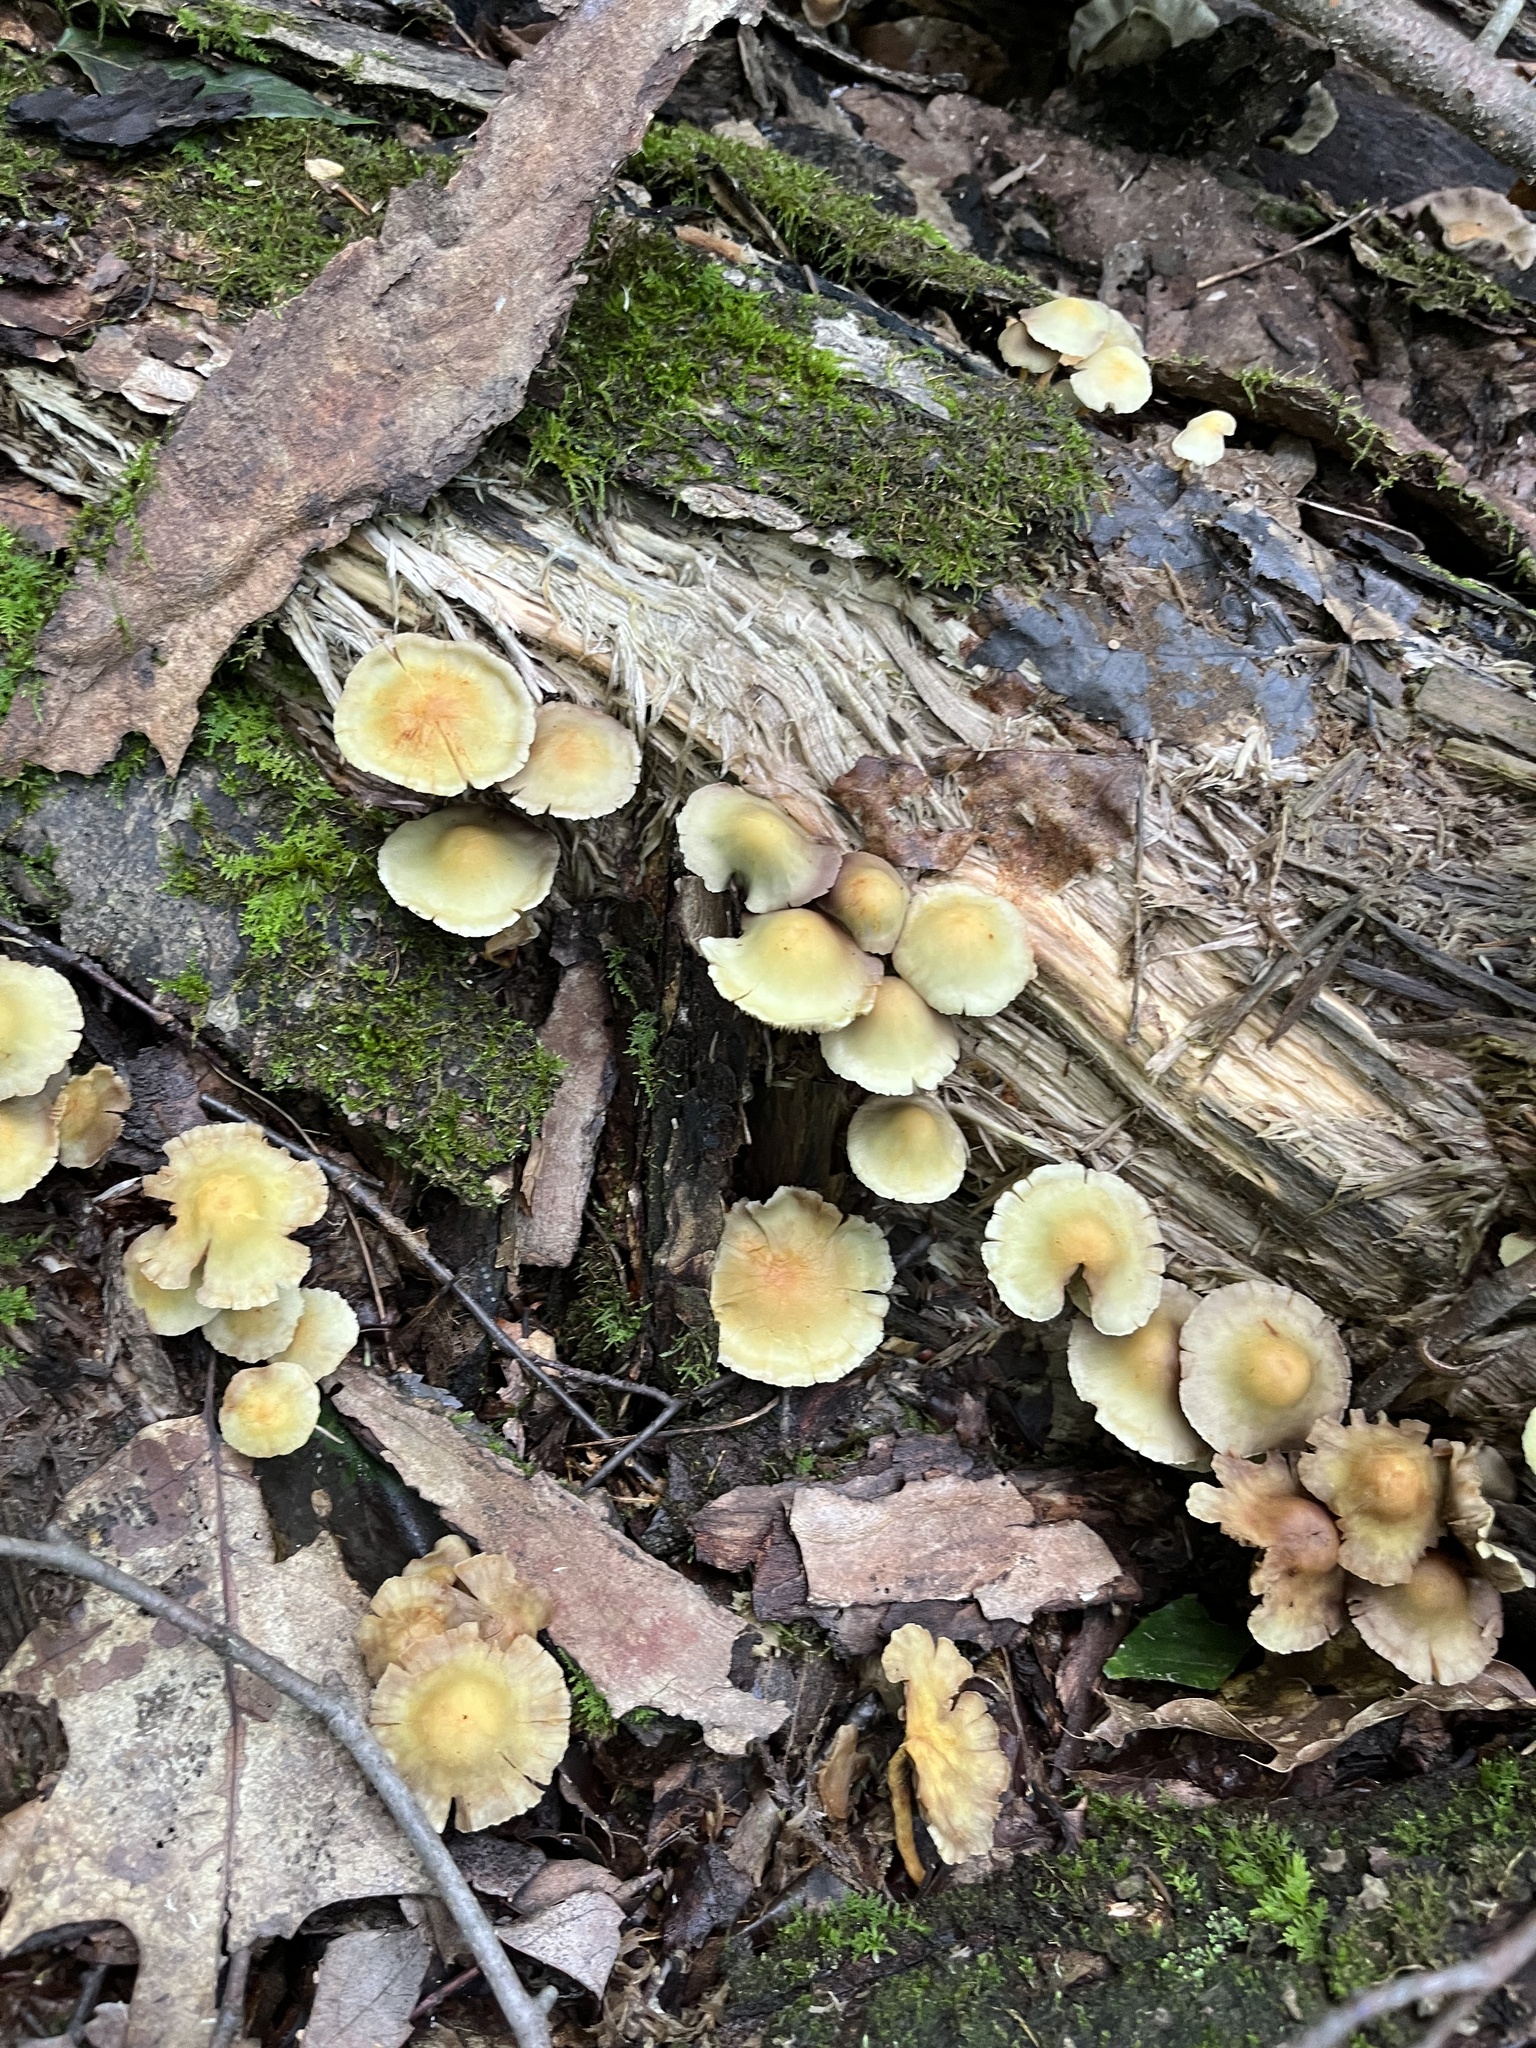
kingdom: Fungi
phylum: Basidiomycota
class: Agaricomycetes
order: Agaricales
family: Strophariaceae
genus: Hypholoma
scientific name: Hypholoma fasciculare
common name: Sulphur tuft
